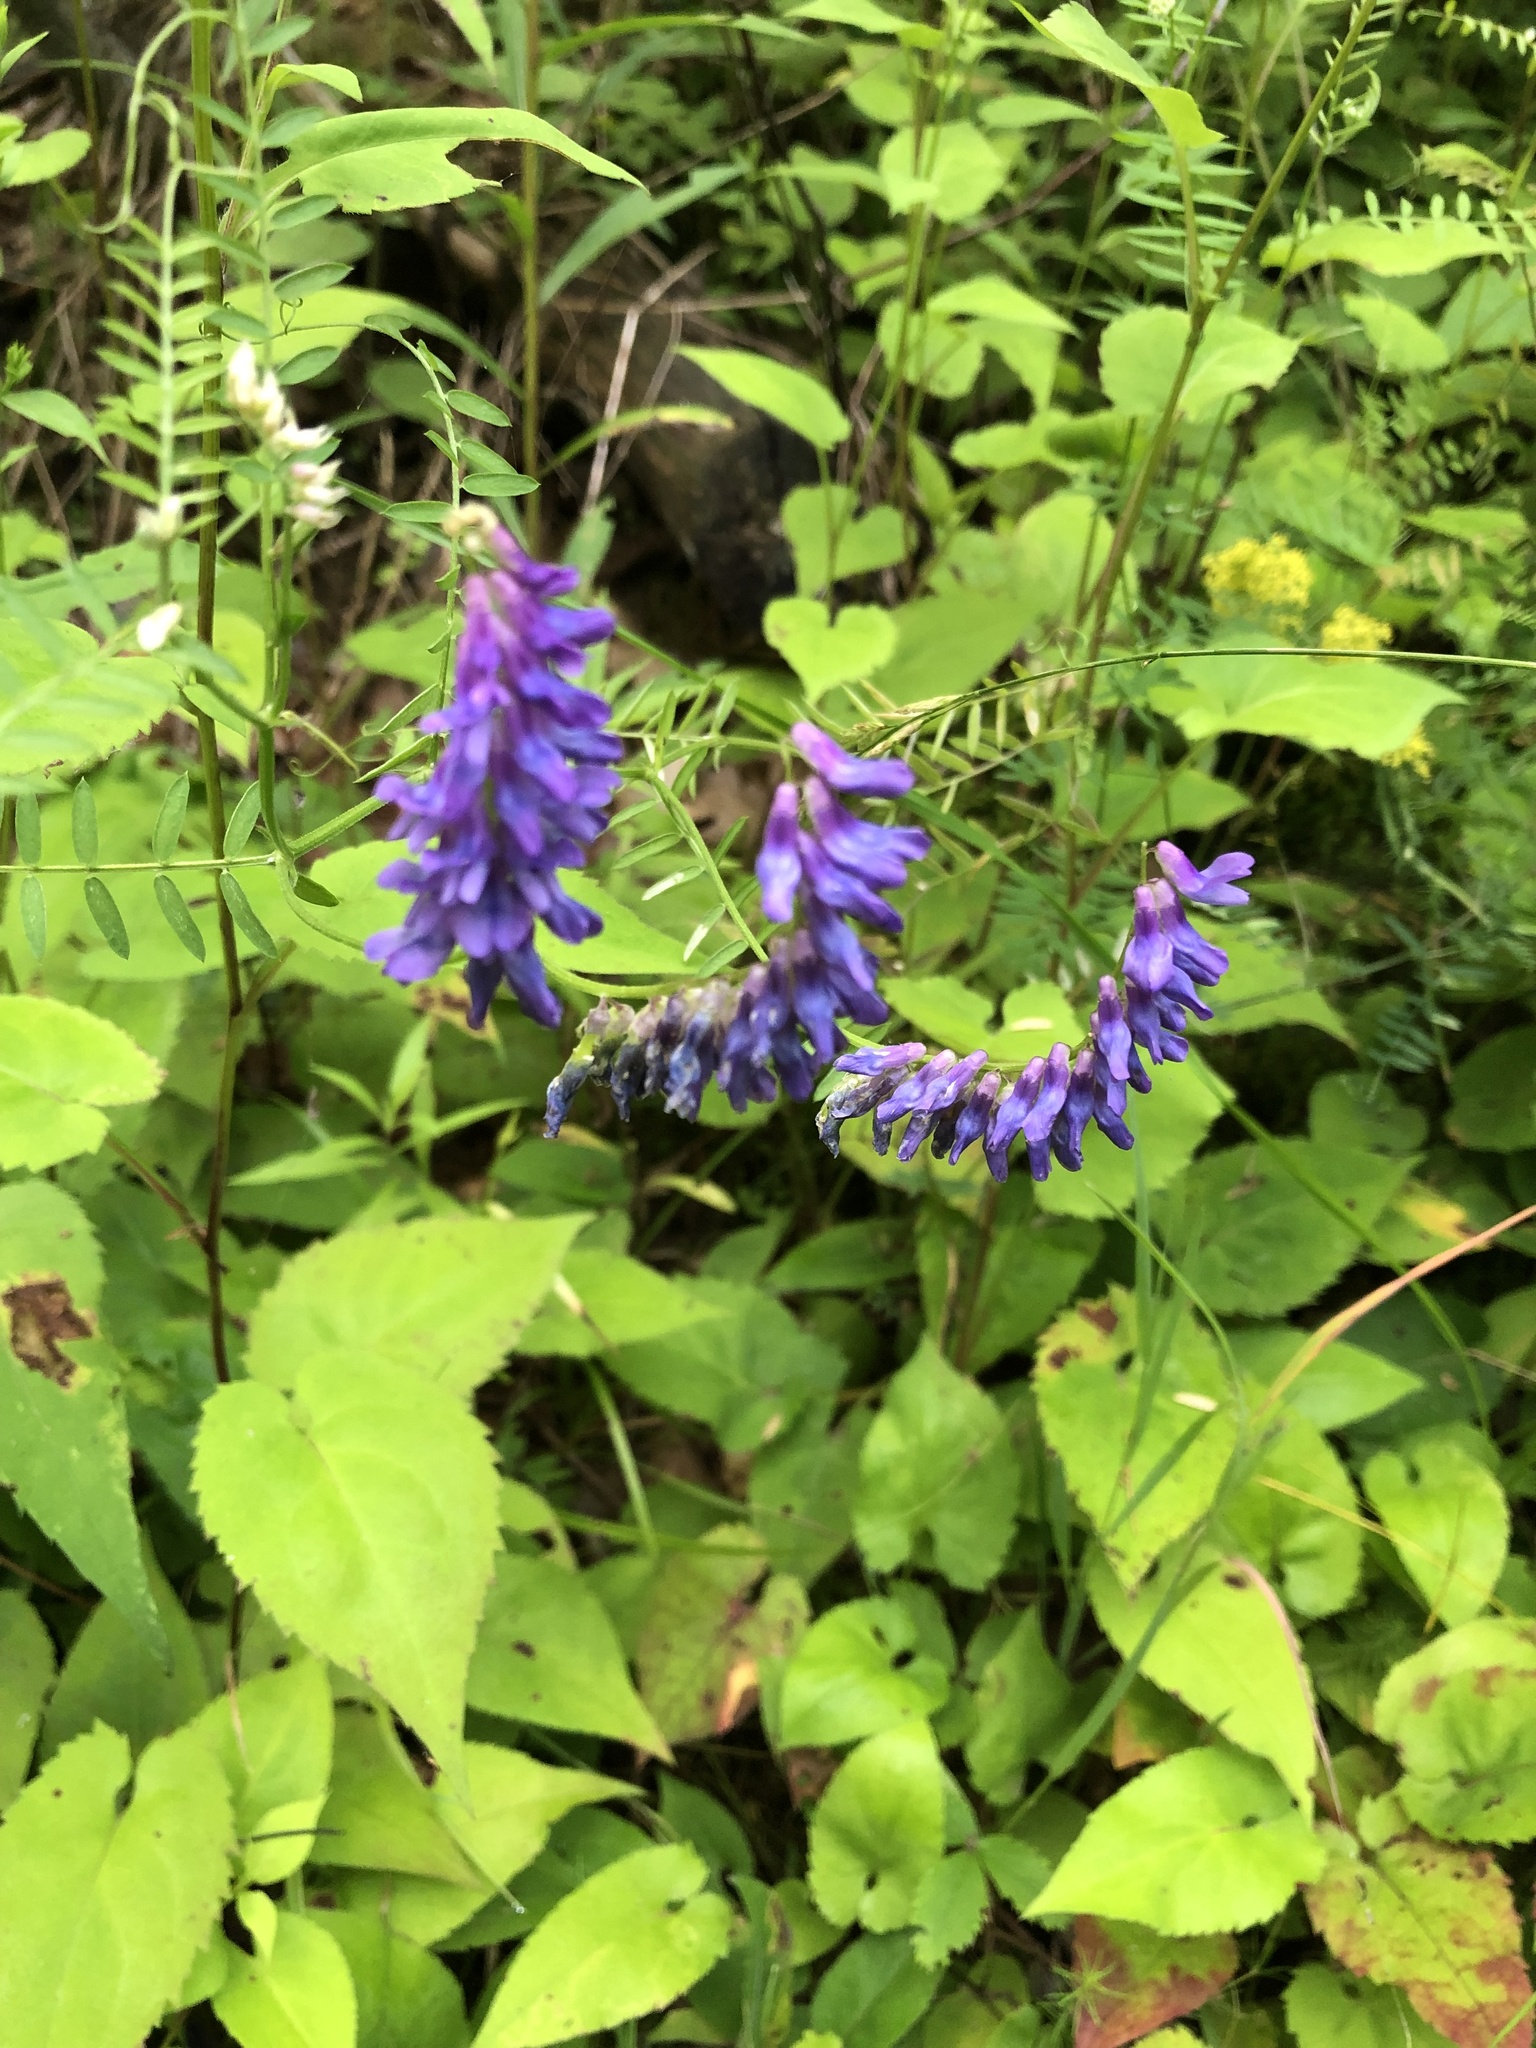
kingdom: Plantae
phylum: Tracheophyta
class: Magnoliopsida
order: Fabales
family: Fabaceae
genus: Vicia
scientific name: Vicia cracca
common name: Bird vetch
